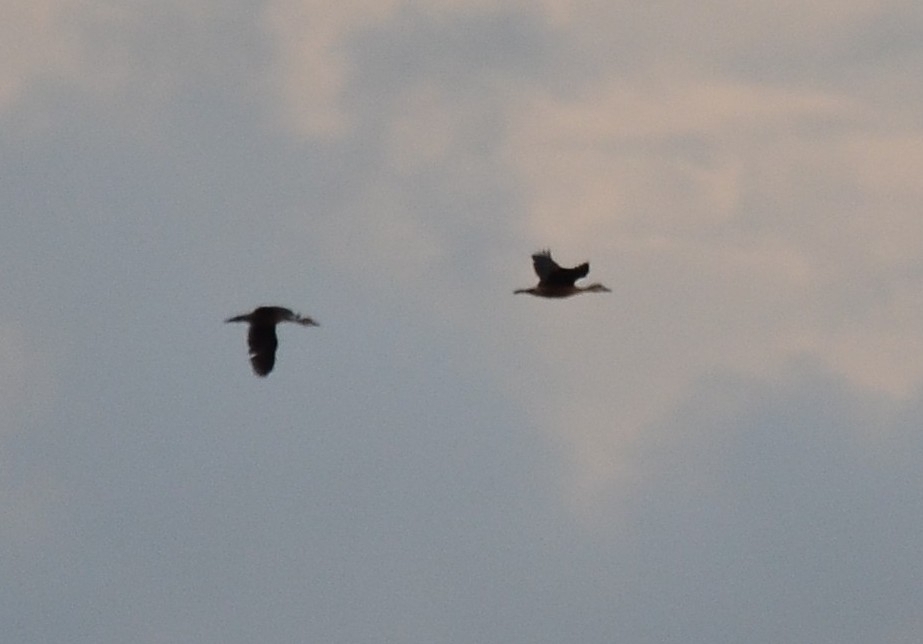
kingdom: Animalia
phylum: Chordata
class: Aves
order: Anseriformes
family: Anatidae
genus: Dendrocygna
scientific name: Dendrocygna javanica
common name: Lesser whistling-duck
